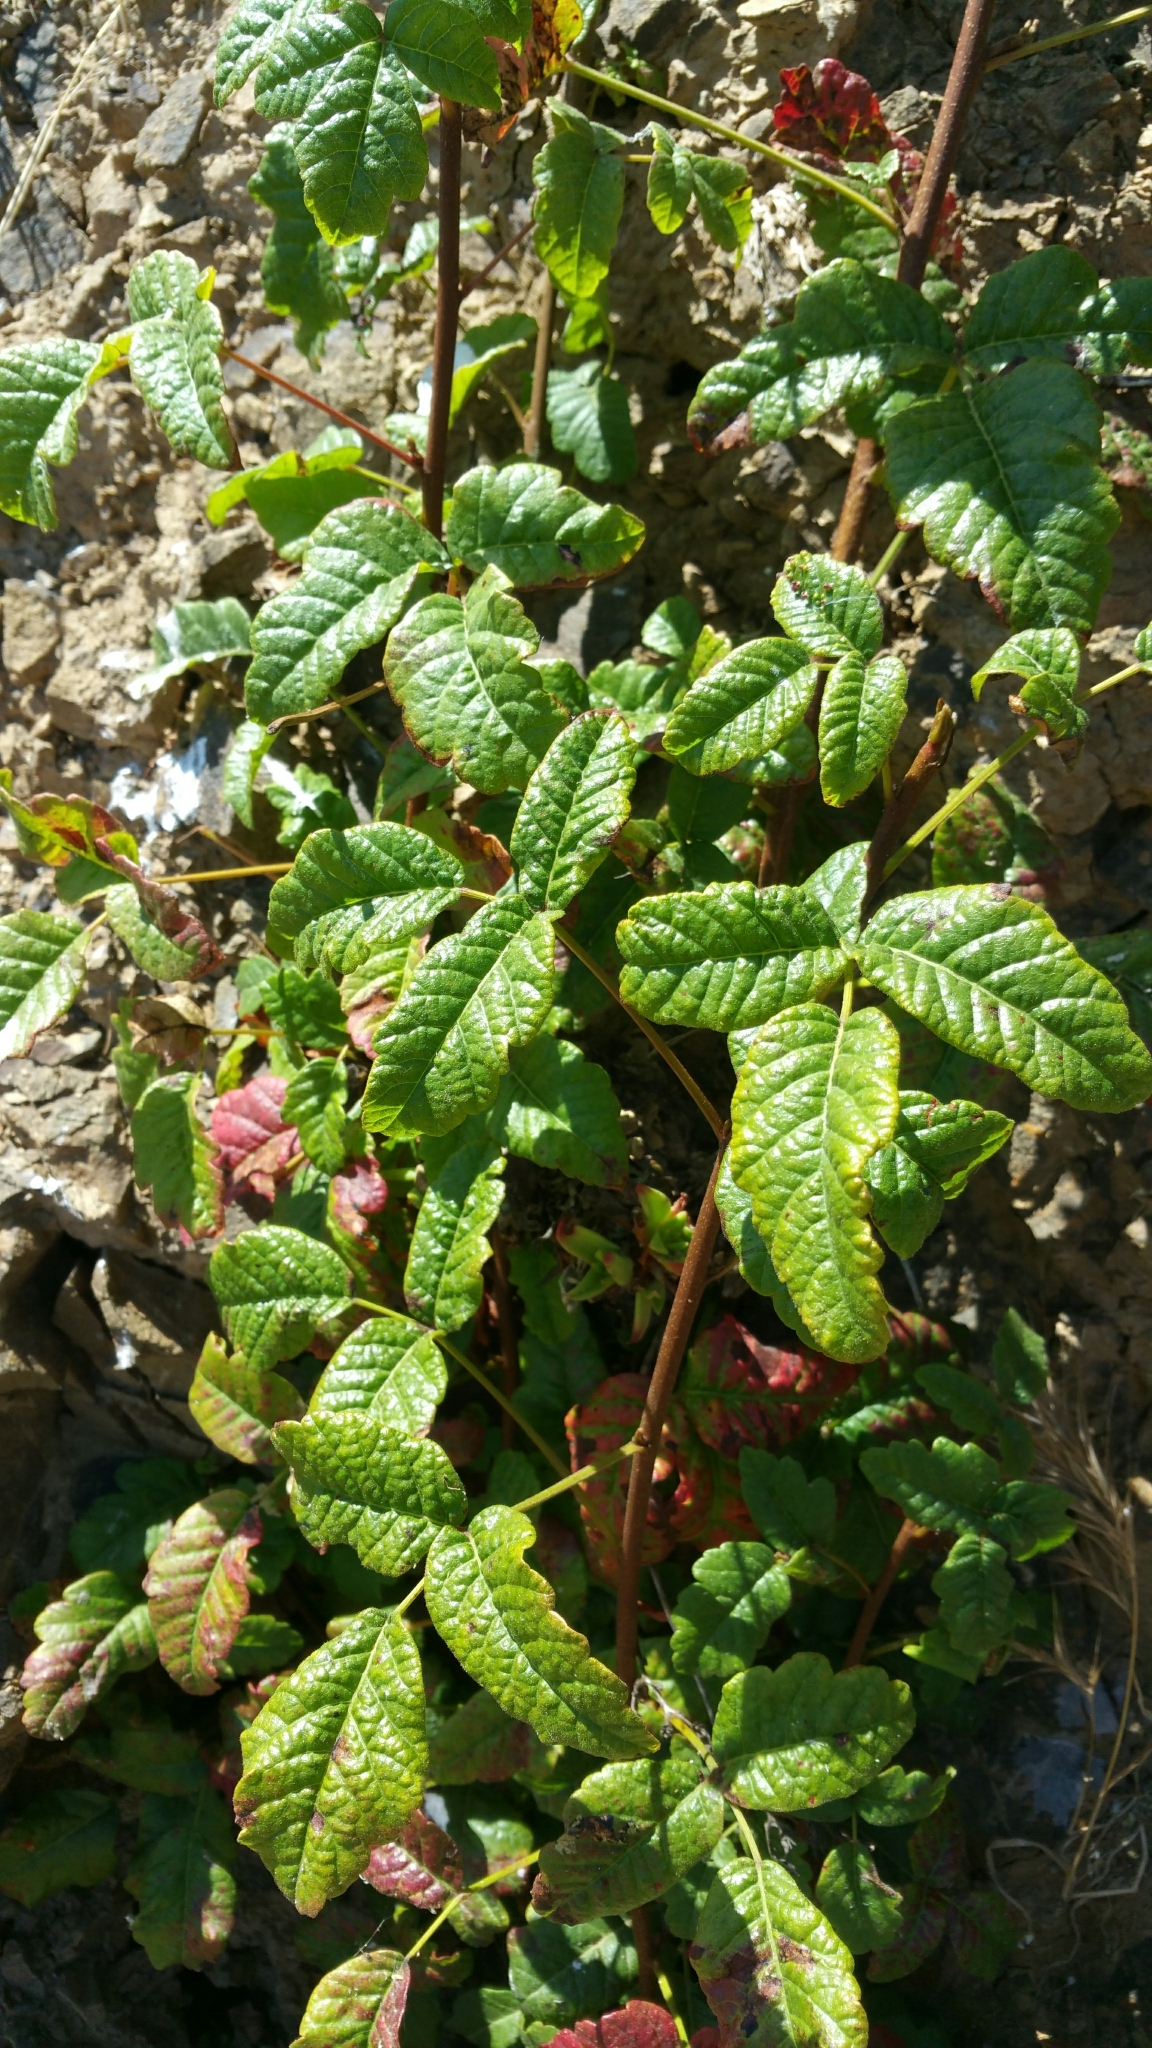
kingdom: Plantae
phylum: Tracheophyta
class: Magnoliopsida
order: Sapindales
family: Anacardiaceae
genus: Toxicodendron
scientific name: Toxicodendron diversilobum
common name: Pacific poison-oak
